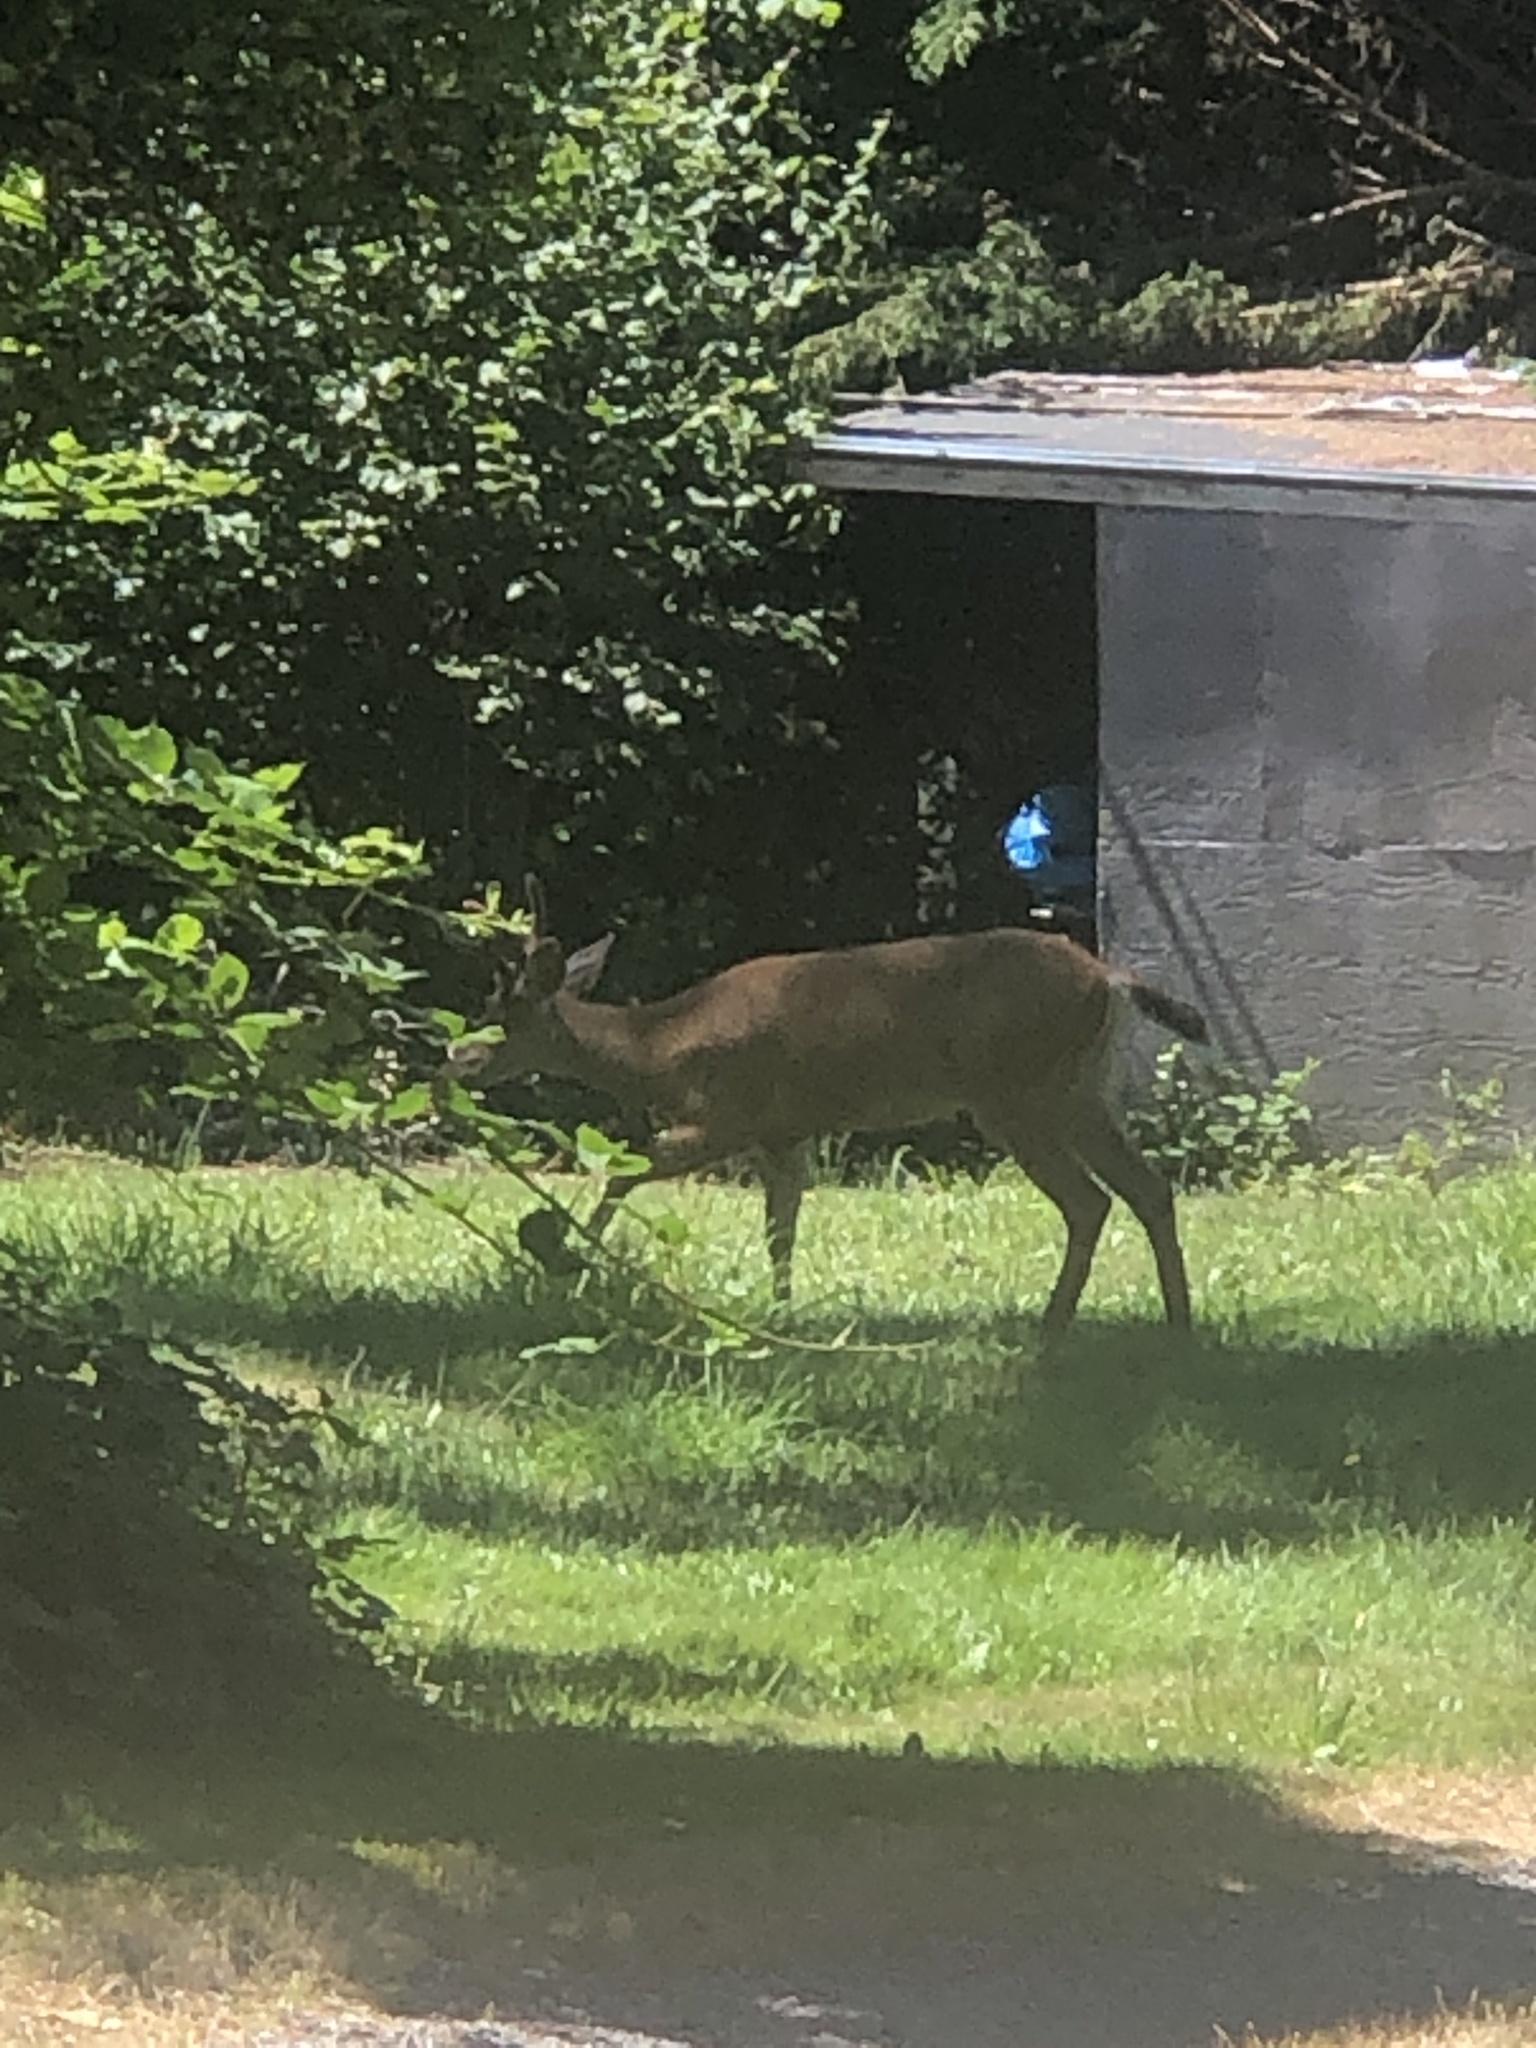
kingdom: Animalia
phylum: Chordata
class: Mammalia
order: Artiodactyla
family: Cervidae
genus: Odocoileus
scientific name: Odocoileus hemionus
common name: Mule deer
